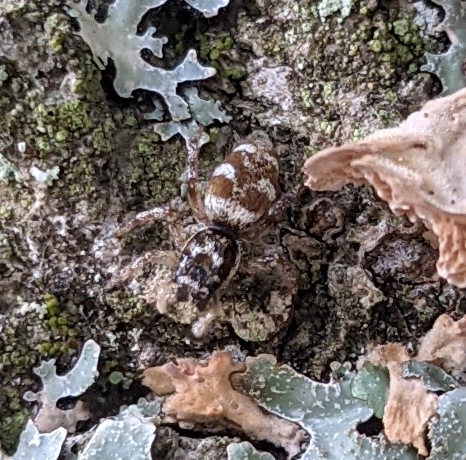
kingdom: Animalia
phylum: Arthropoda
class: Arachnida
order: Araneae
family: Salticidae
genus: Salticus
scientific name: Salticus scenicus
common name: Zebra jumper
